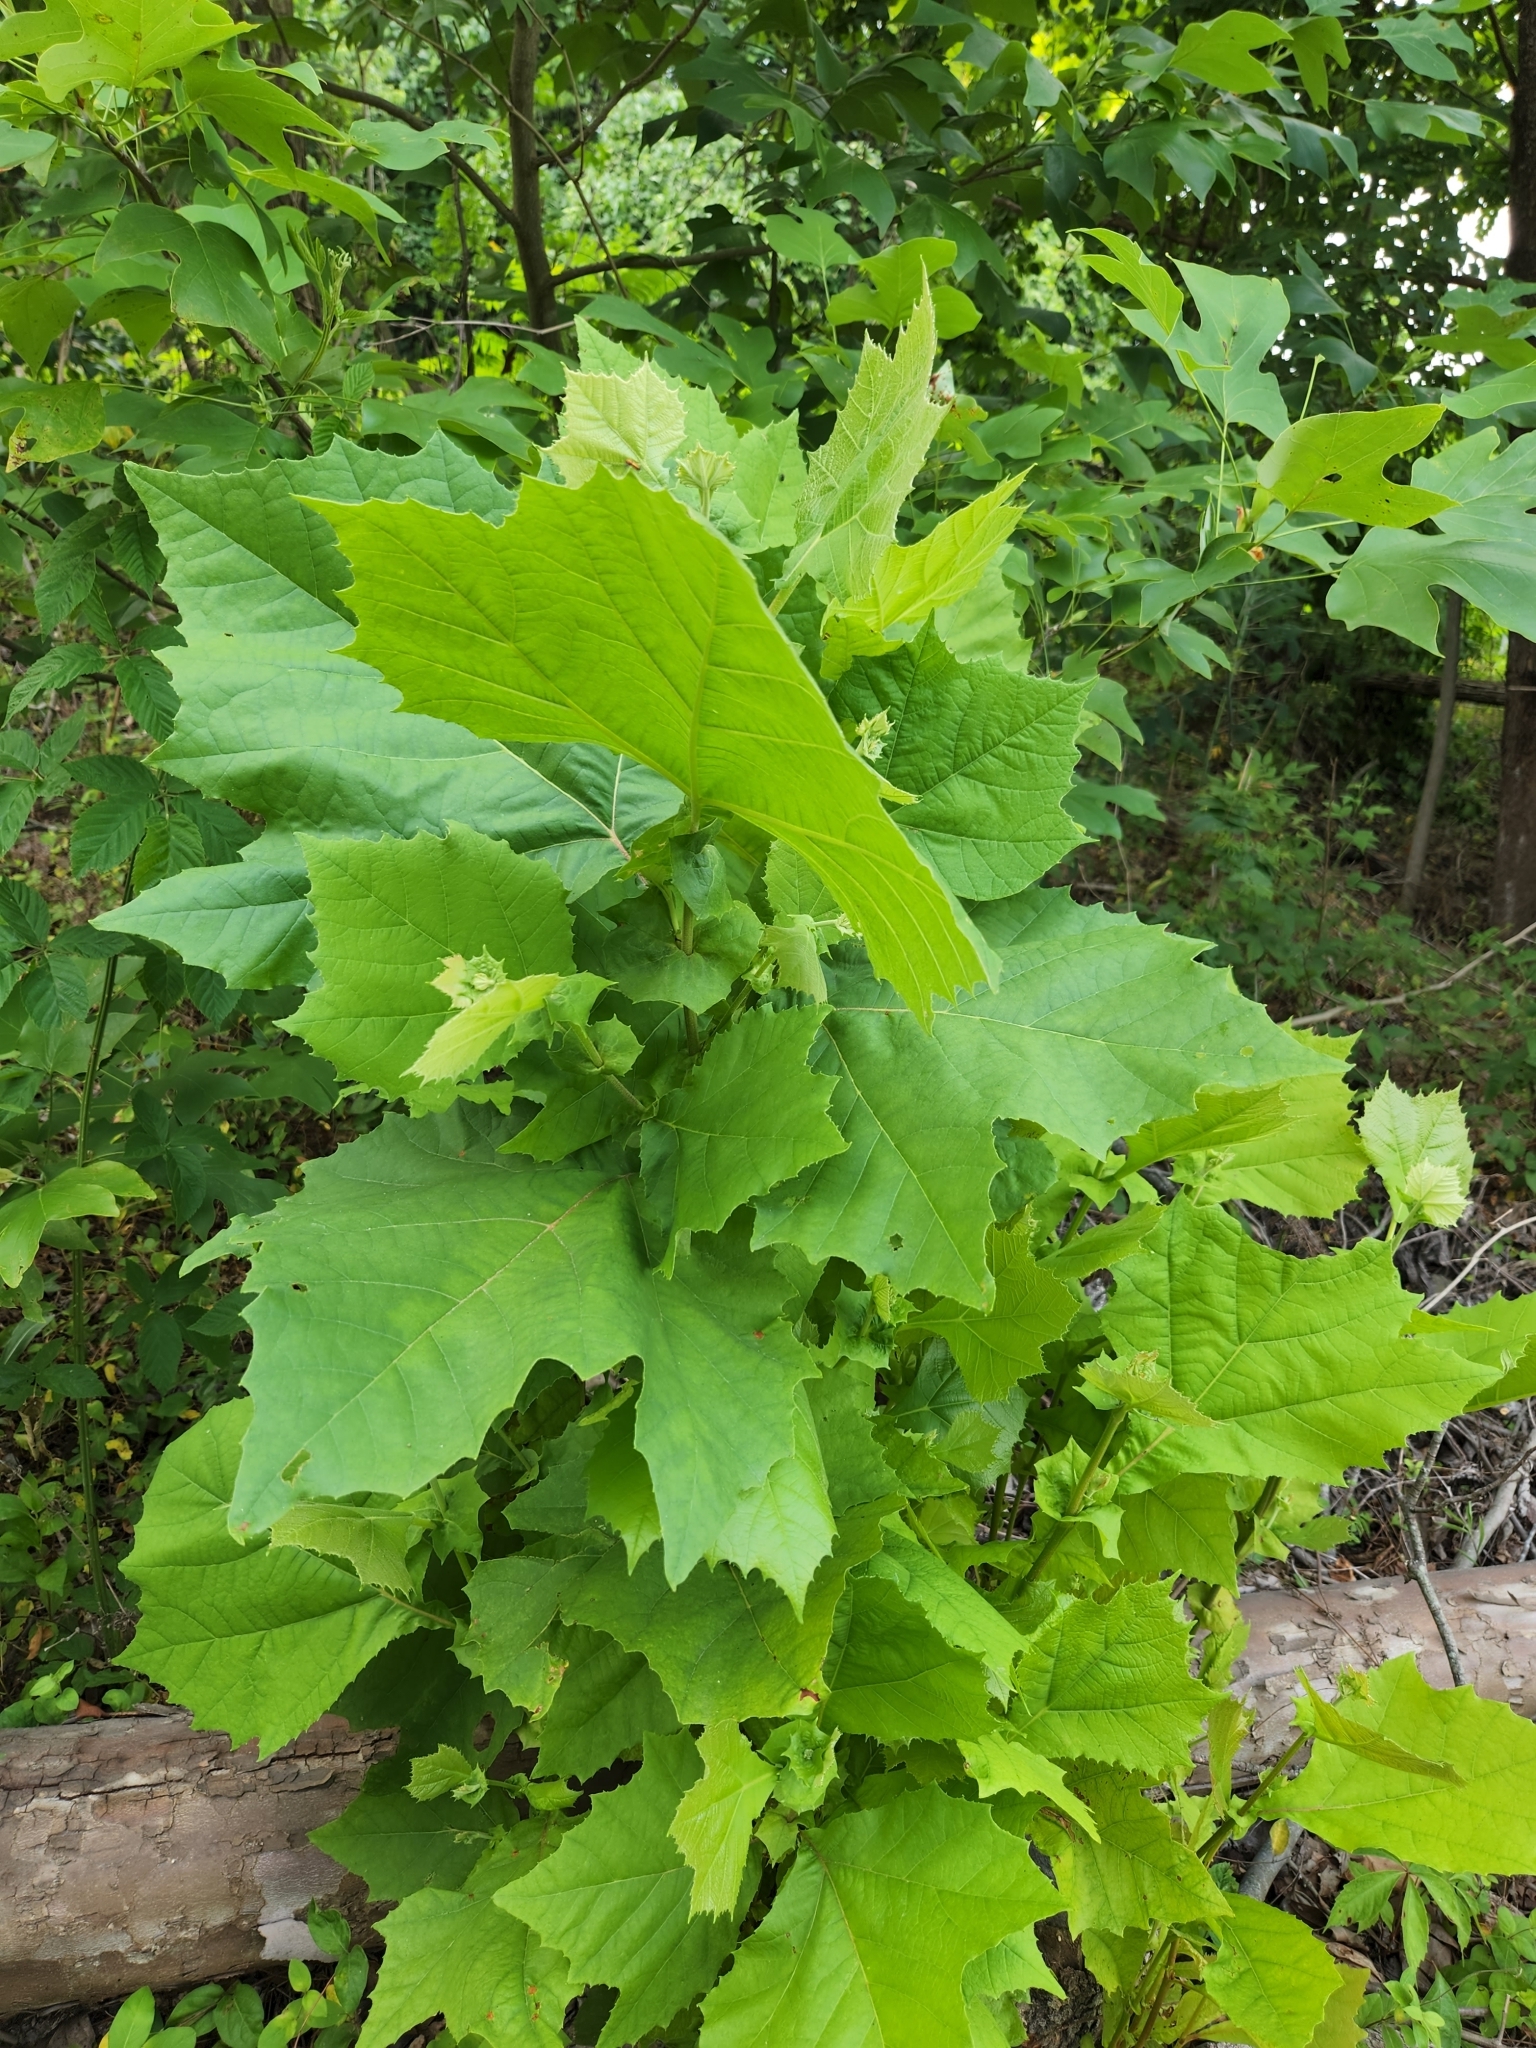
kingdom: Plantae
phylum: Tracheophyta
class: Magnoliopsida
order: Proteales
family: Platanaceae
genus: Platanus
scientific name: Platanus occidentalis
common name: American sycamore
